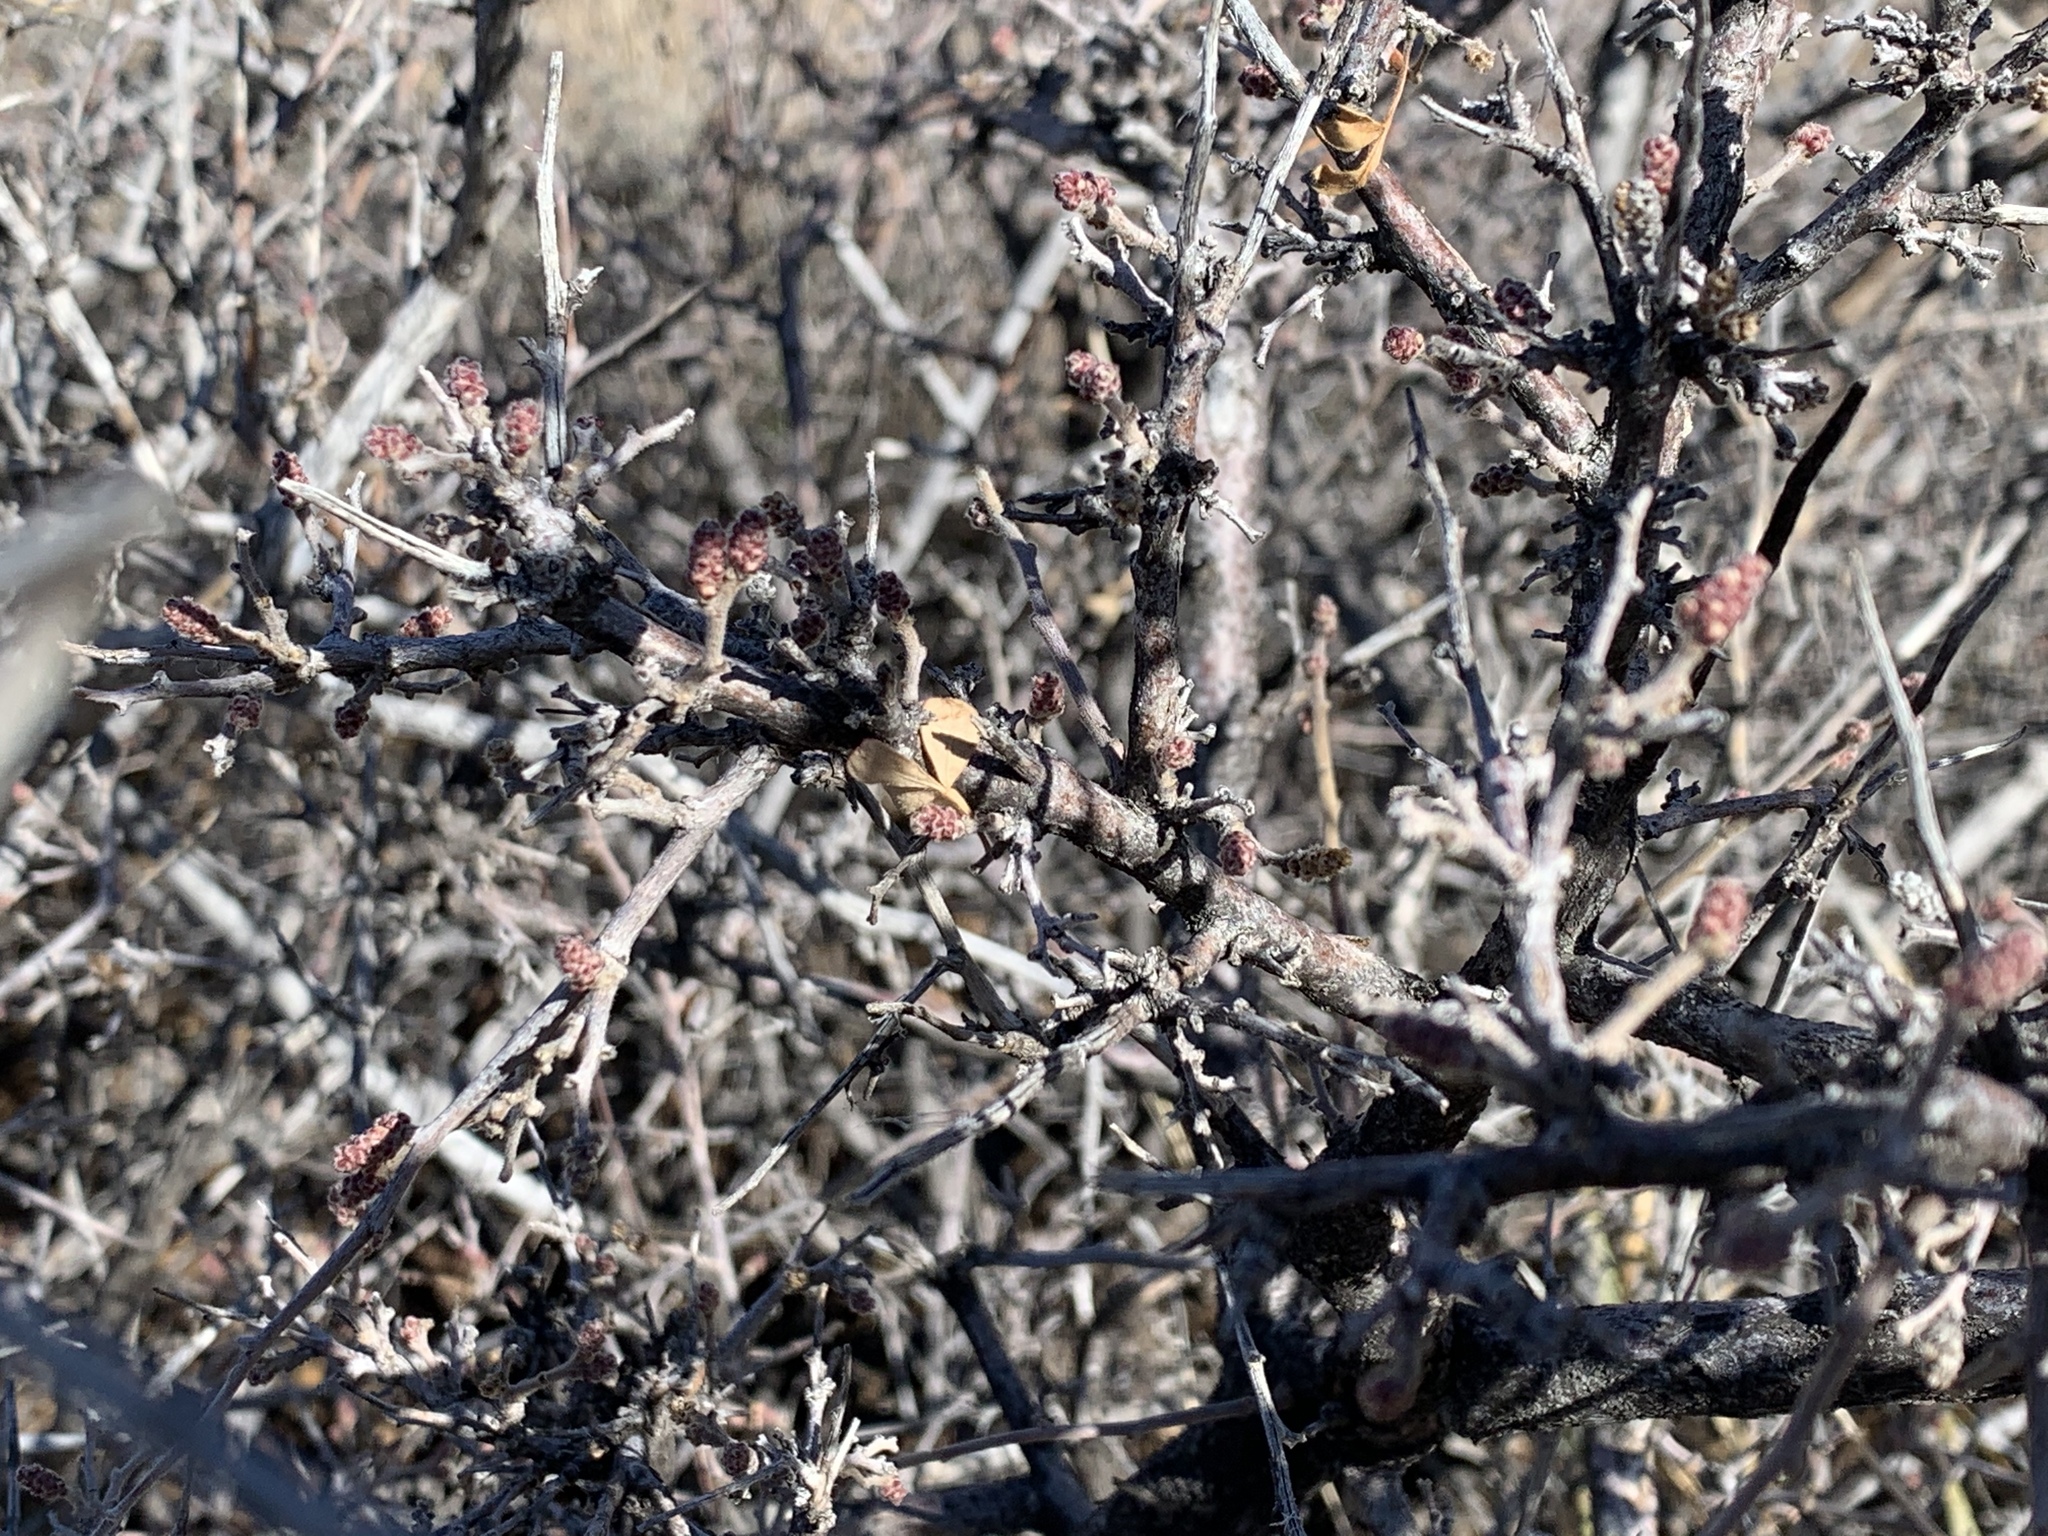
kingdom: Plantae
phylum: Tracheophyta
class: Magnoliopsida
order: Sapindales
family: Anacardiaceae
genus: Rhus
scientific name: Rhus microphylla
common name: Desert sumac
